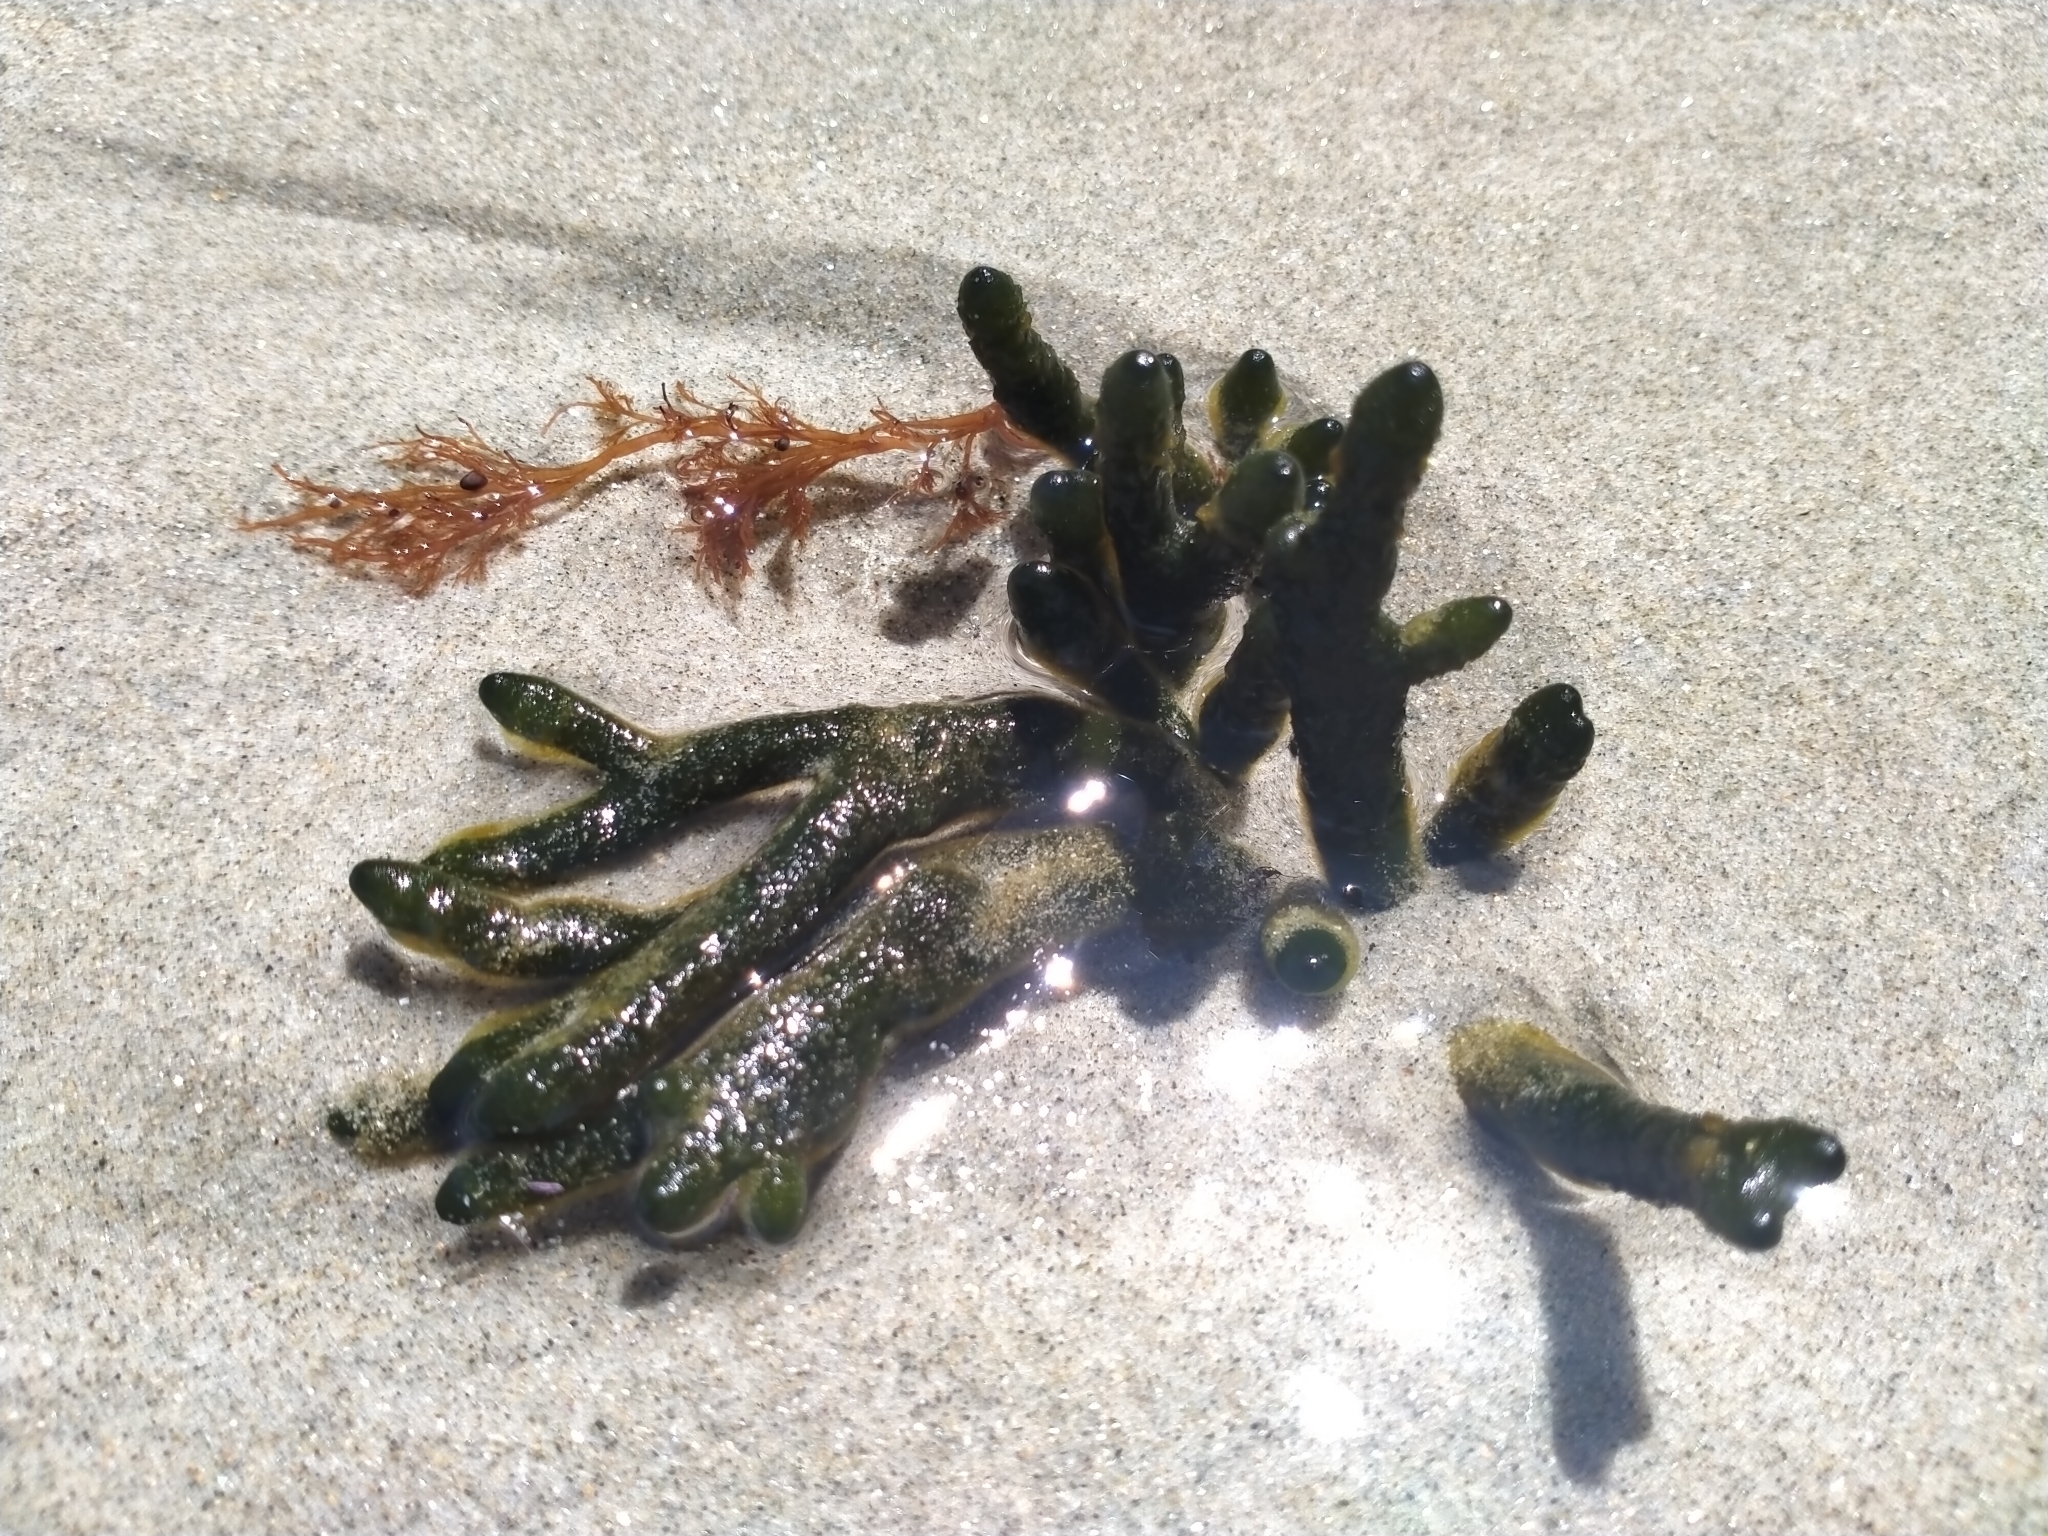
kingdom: Plantae
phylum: Chlorophyta
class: Ulvophyceae
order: Bryopsidales
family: Codiaceae
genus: Codium
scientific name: Codium fragile
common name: Dead man's fingers
